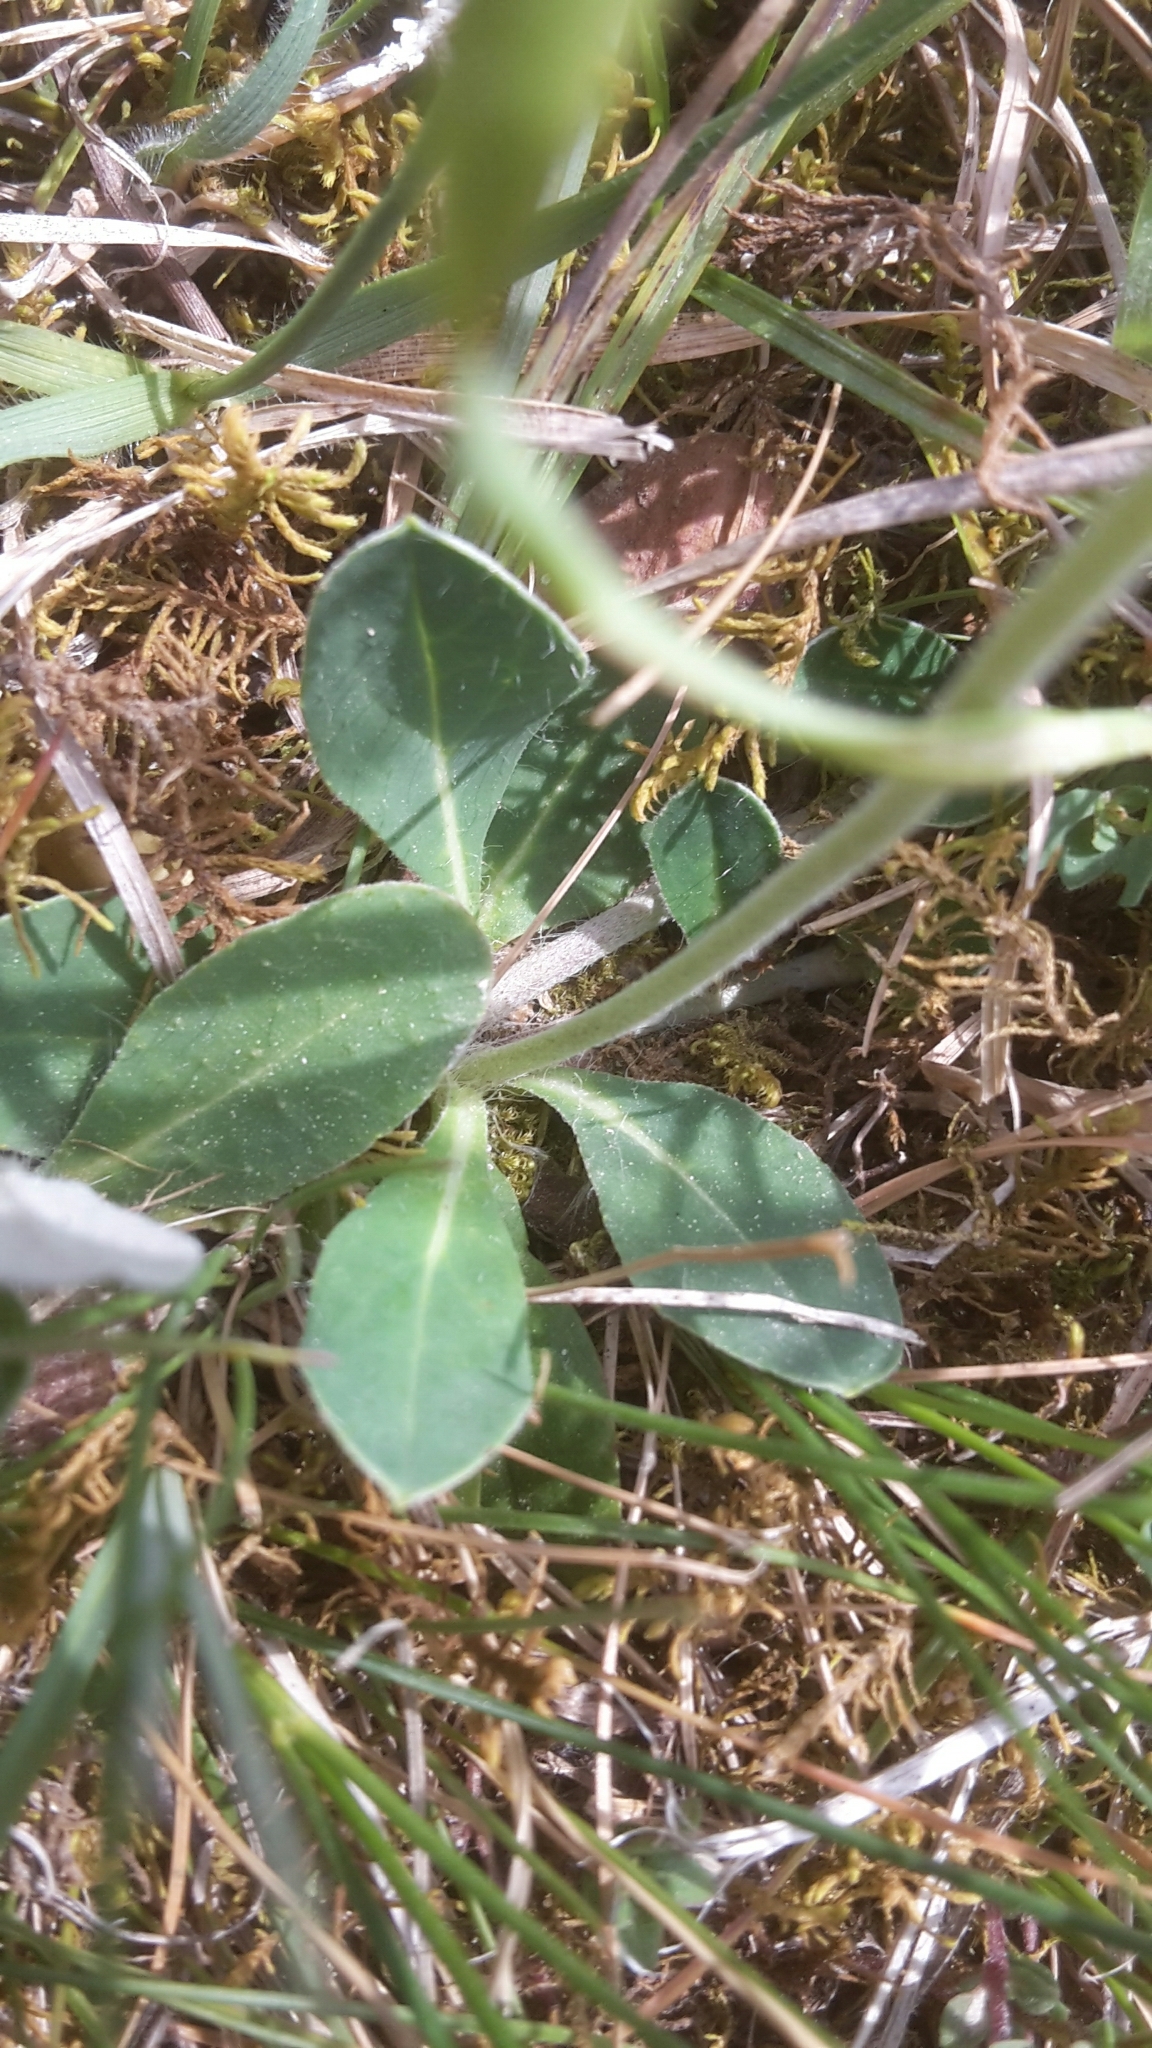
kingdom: Plantae
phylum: Tracheophyta
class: Magnoliopsida
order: Asterales
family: Asteraceae
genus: Pilosella
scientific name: Pilosella officinarum
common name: Mouse-ear hawkweed
